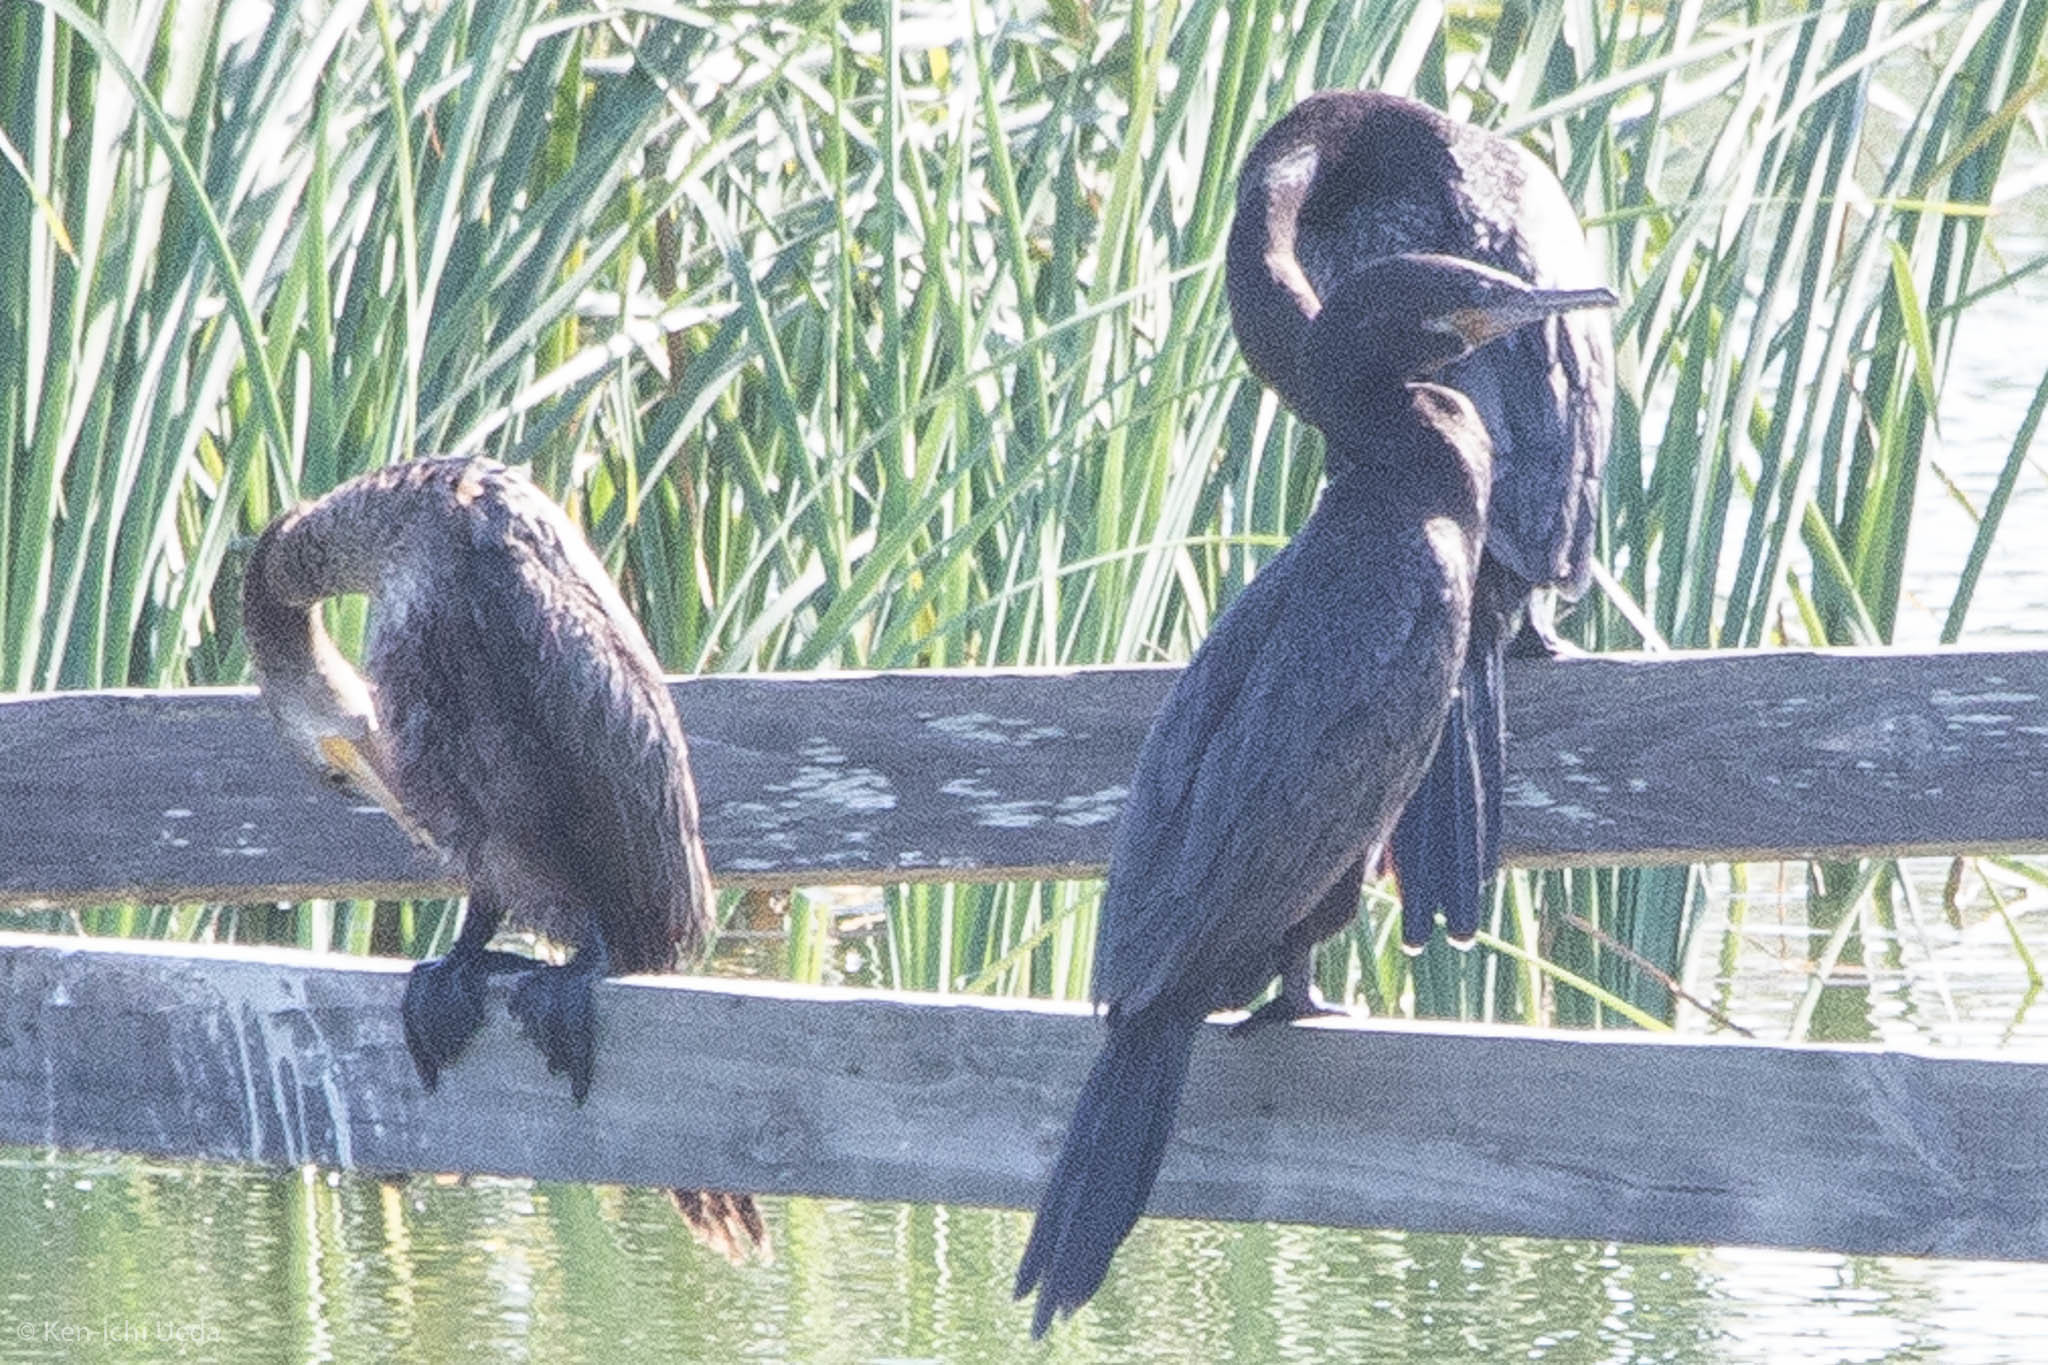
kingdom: Animalia
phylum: Chordata
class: Aves
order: Suliformes
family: Phalacrocoracidae
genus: Phalacrocorax
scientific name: Phalacrocorax brasilianus
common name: Neotropic cormorant
